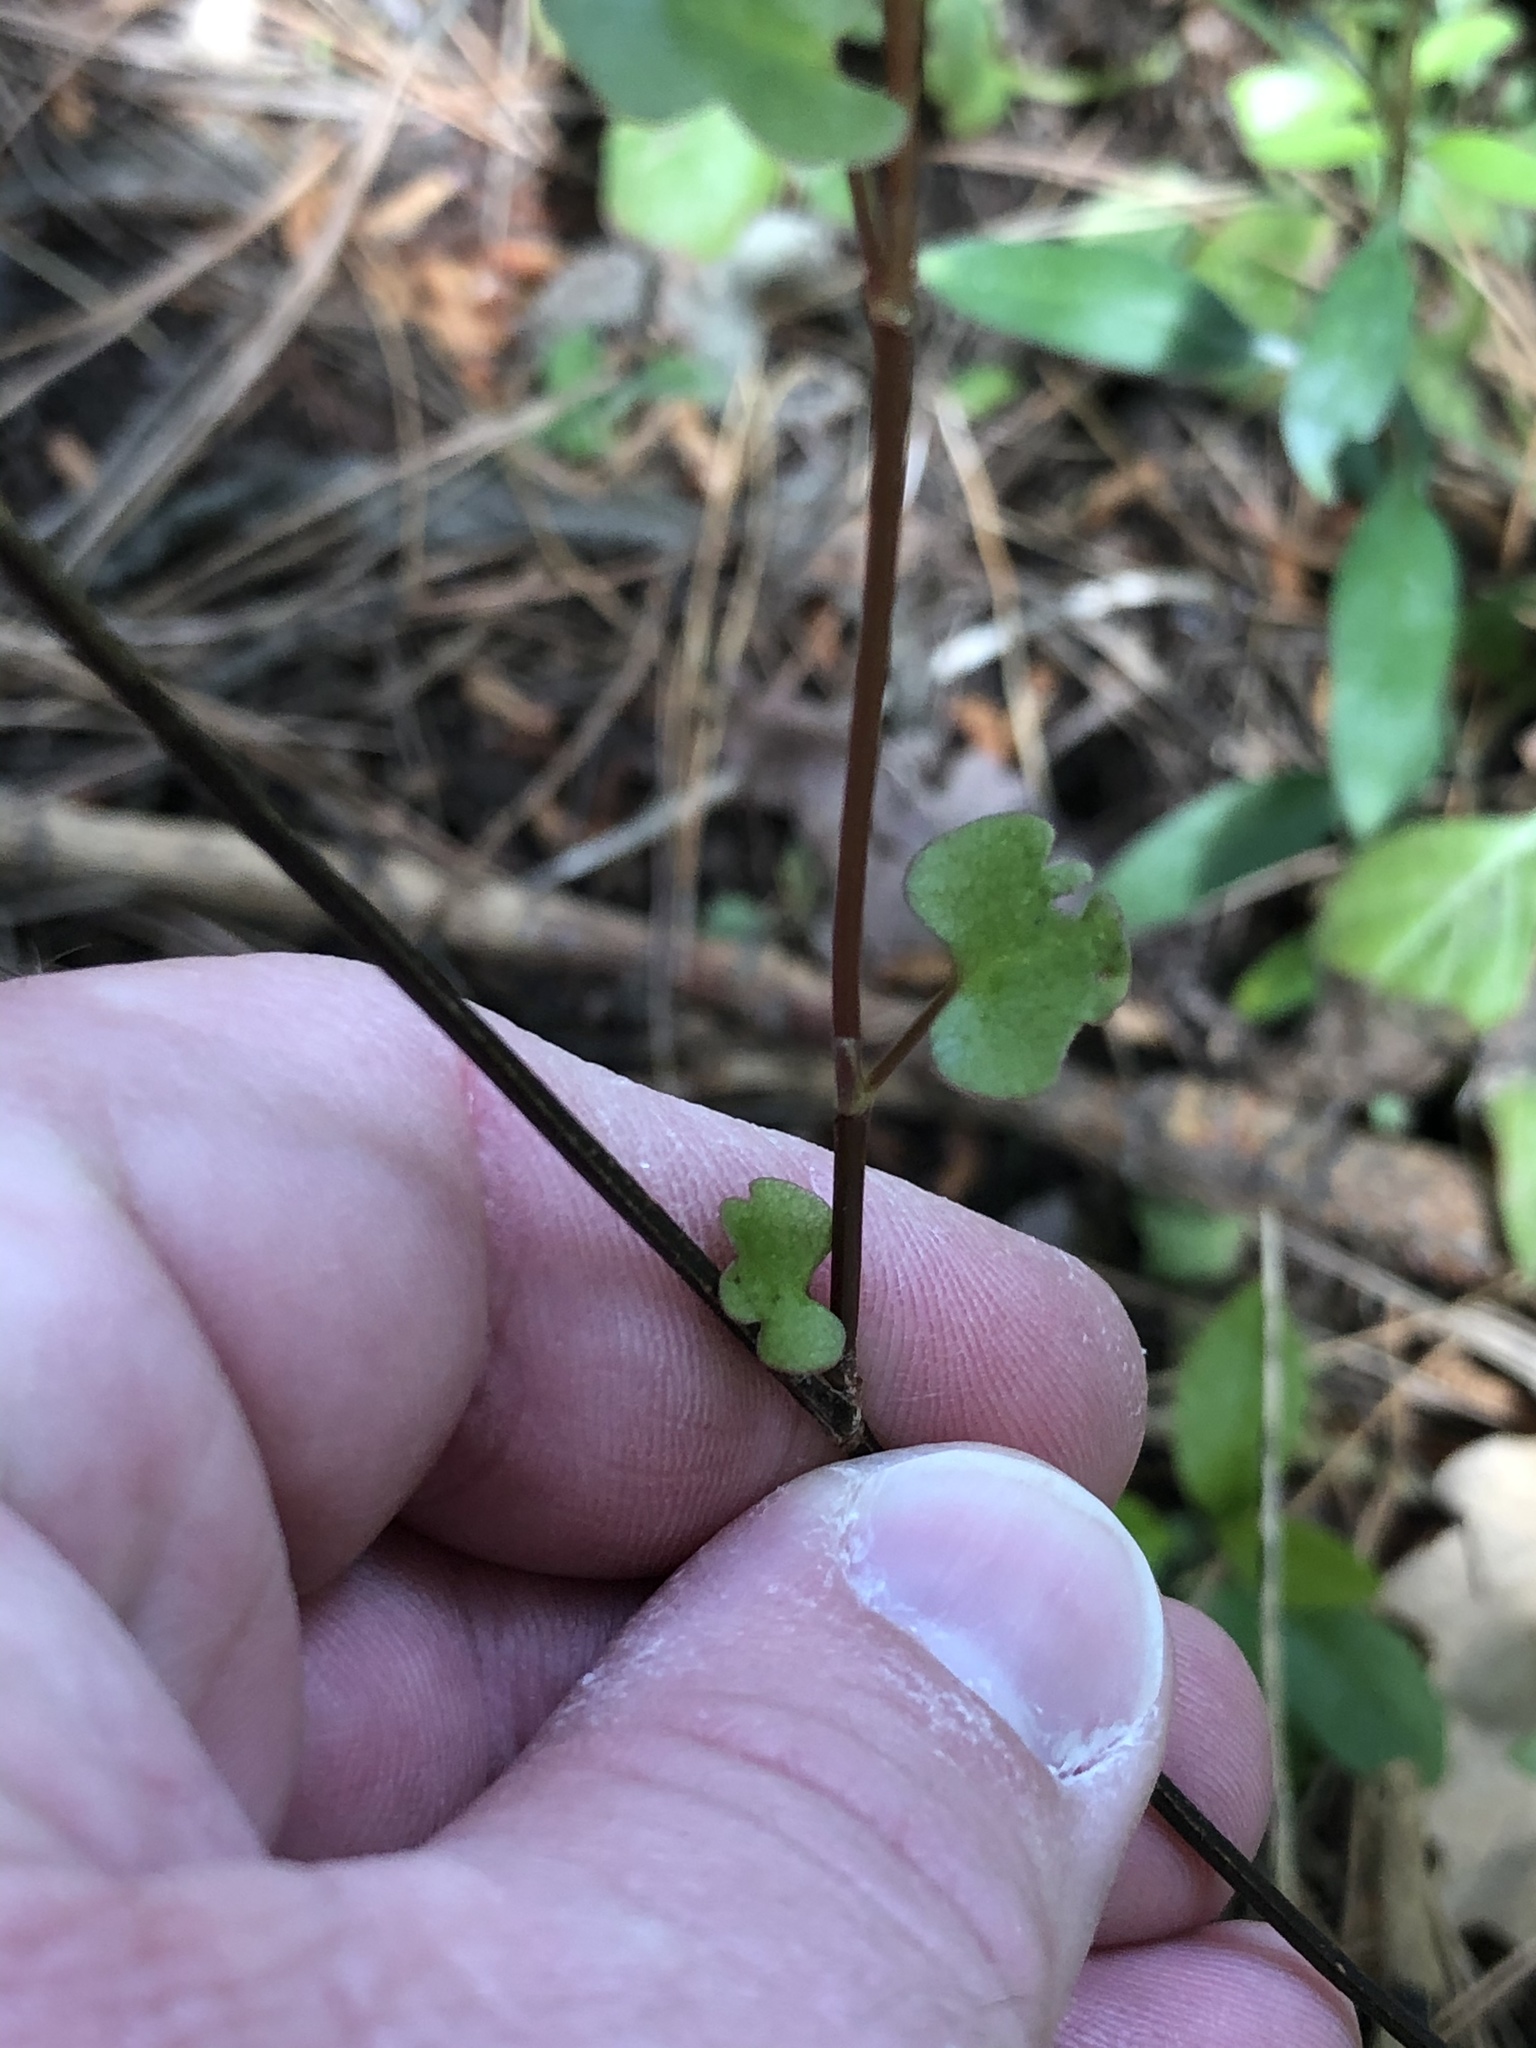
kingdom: Plantae
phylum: Tracheophyta
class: Magnoliopsida
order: Caryophyllales
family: Polygonaceae
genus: Muehlenbeckia
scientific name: Muehlenbeckia australis
